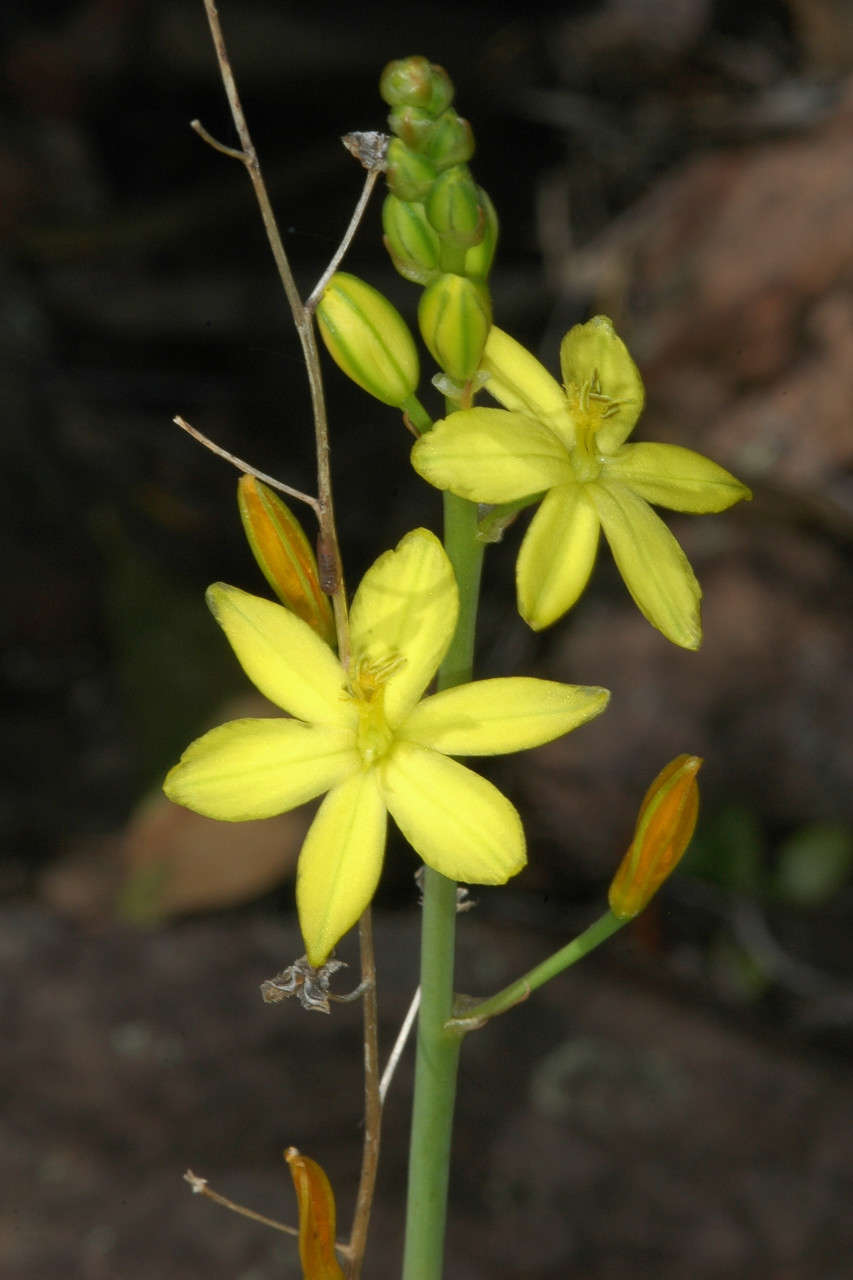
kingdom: Plantae
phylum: Tracheophyta
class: Liliopsida
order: Asparagales
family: Asphodelaceae
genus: Bulbine
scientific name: Bulbine bulbosa
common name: Golden-lily
